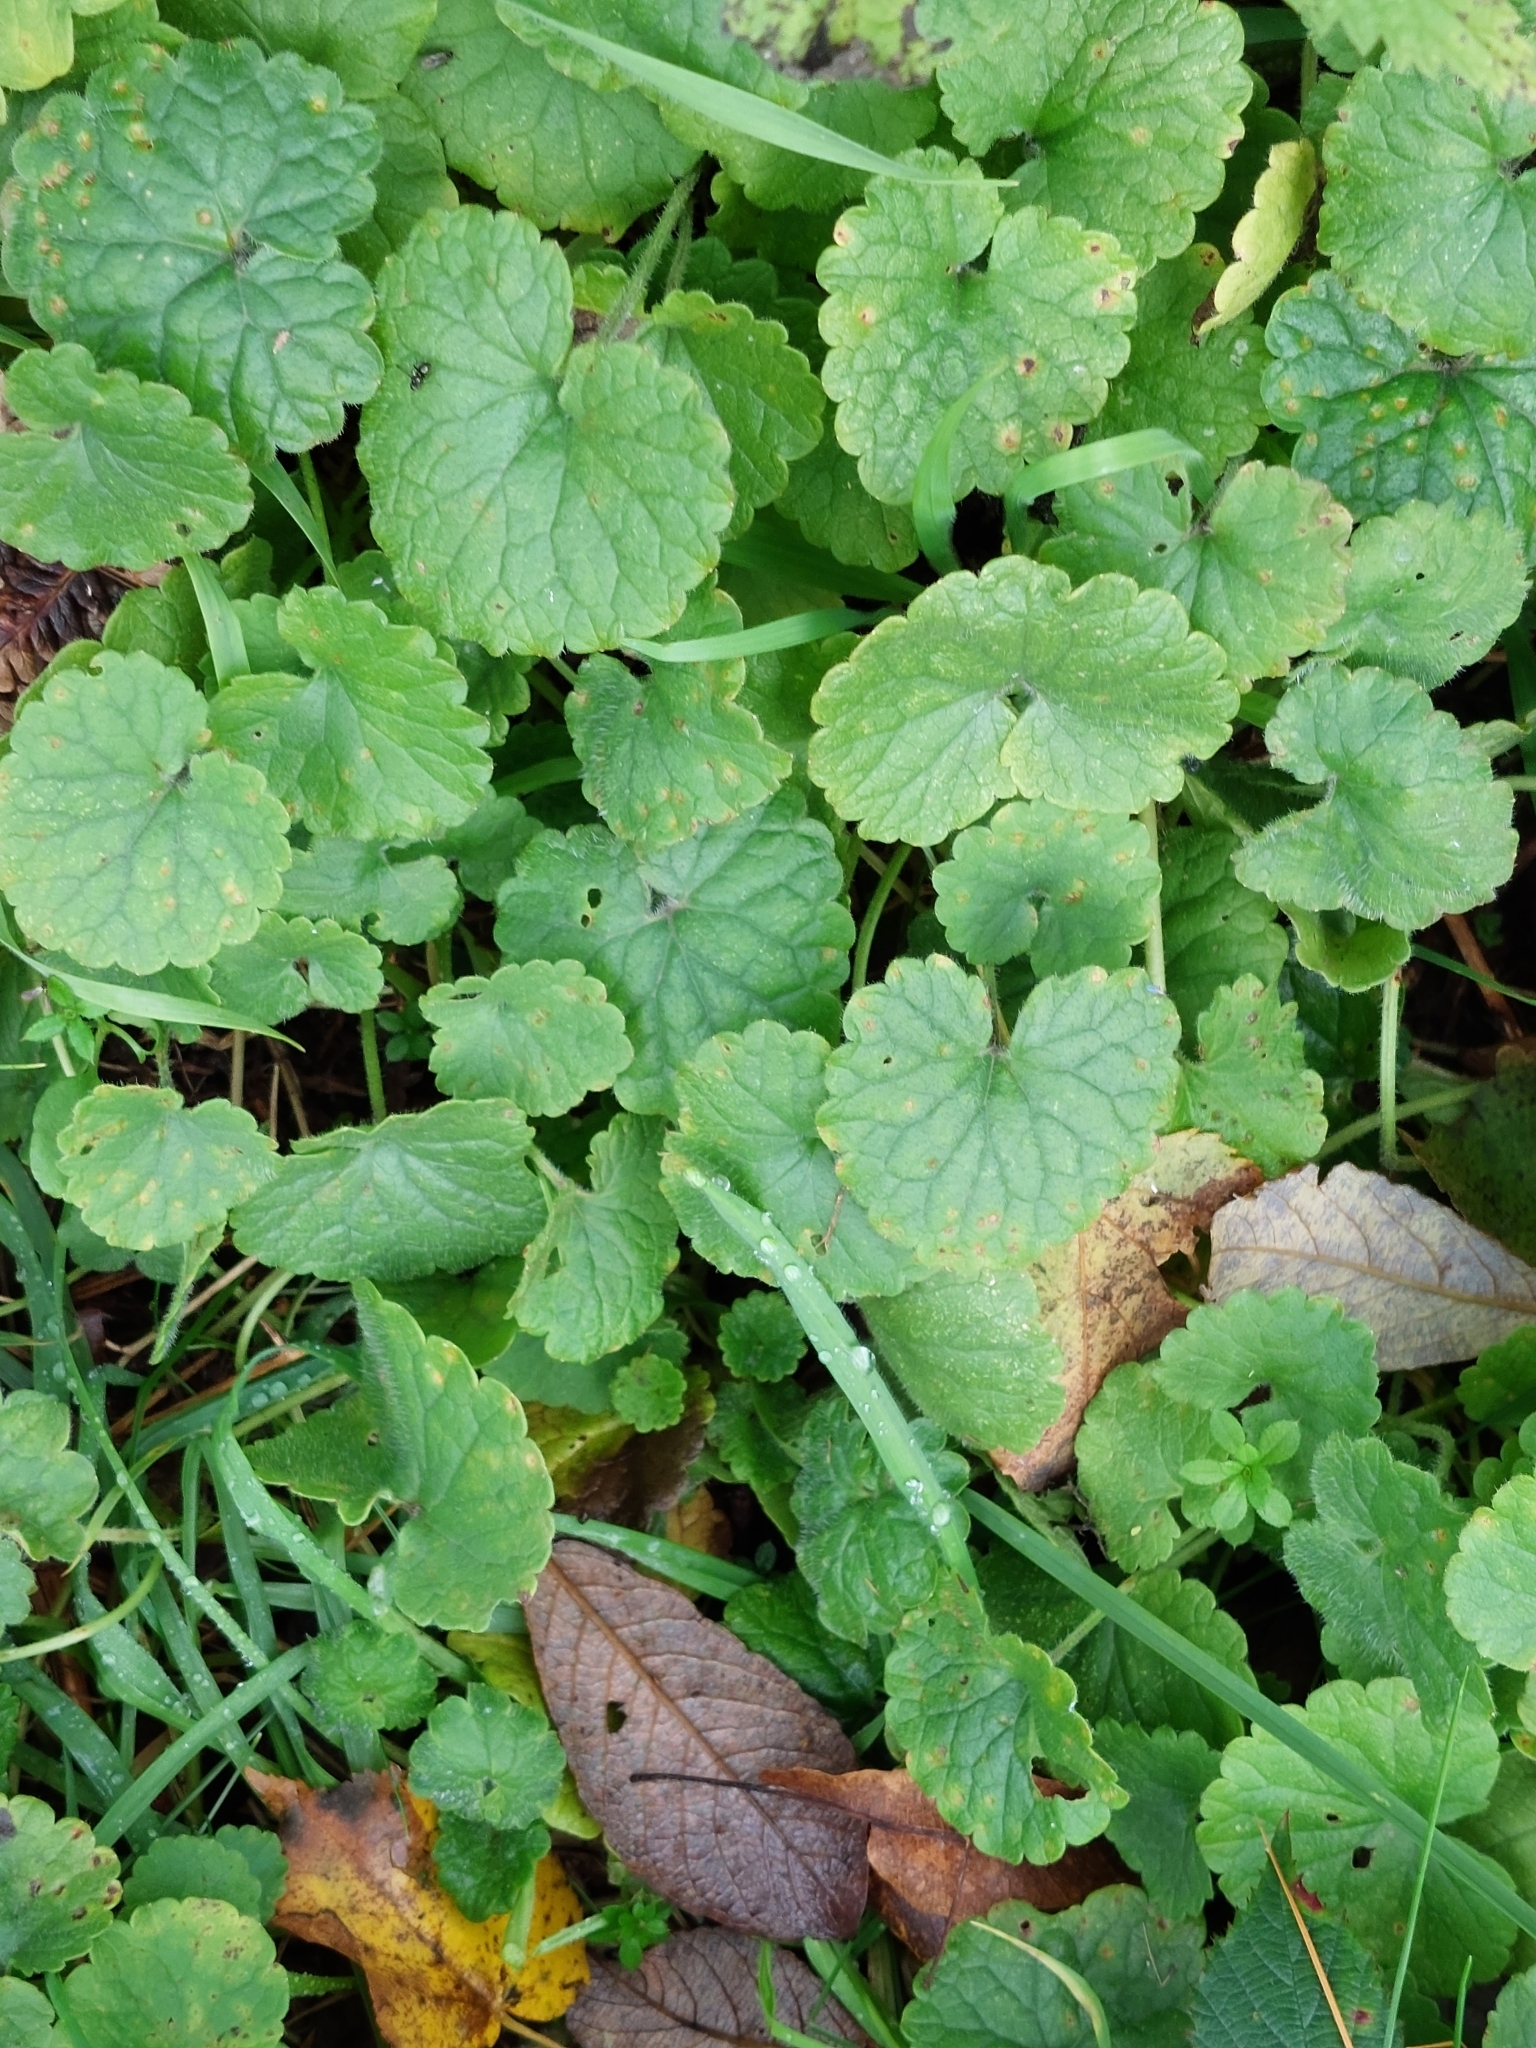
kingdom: Plantae
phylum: Tracheophyta
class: Magnoliopsida
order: Lamiales
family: Lamiaceae
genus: Glechoma
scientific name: Glechoma hederacea
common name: Ground ivy
